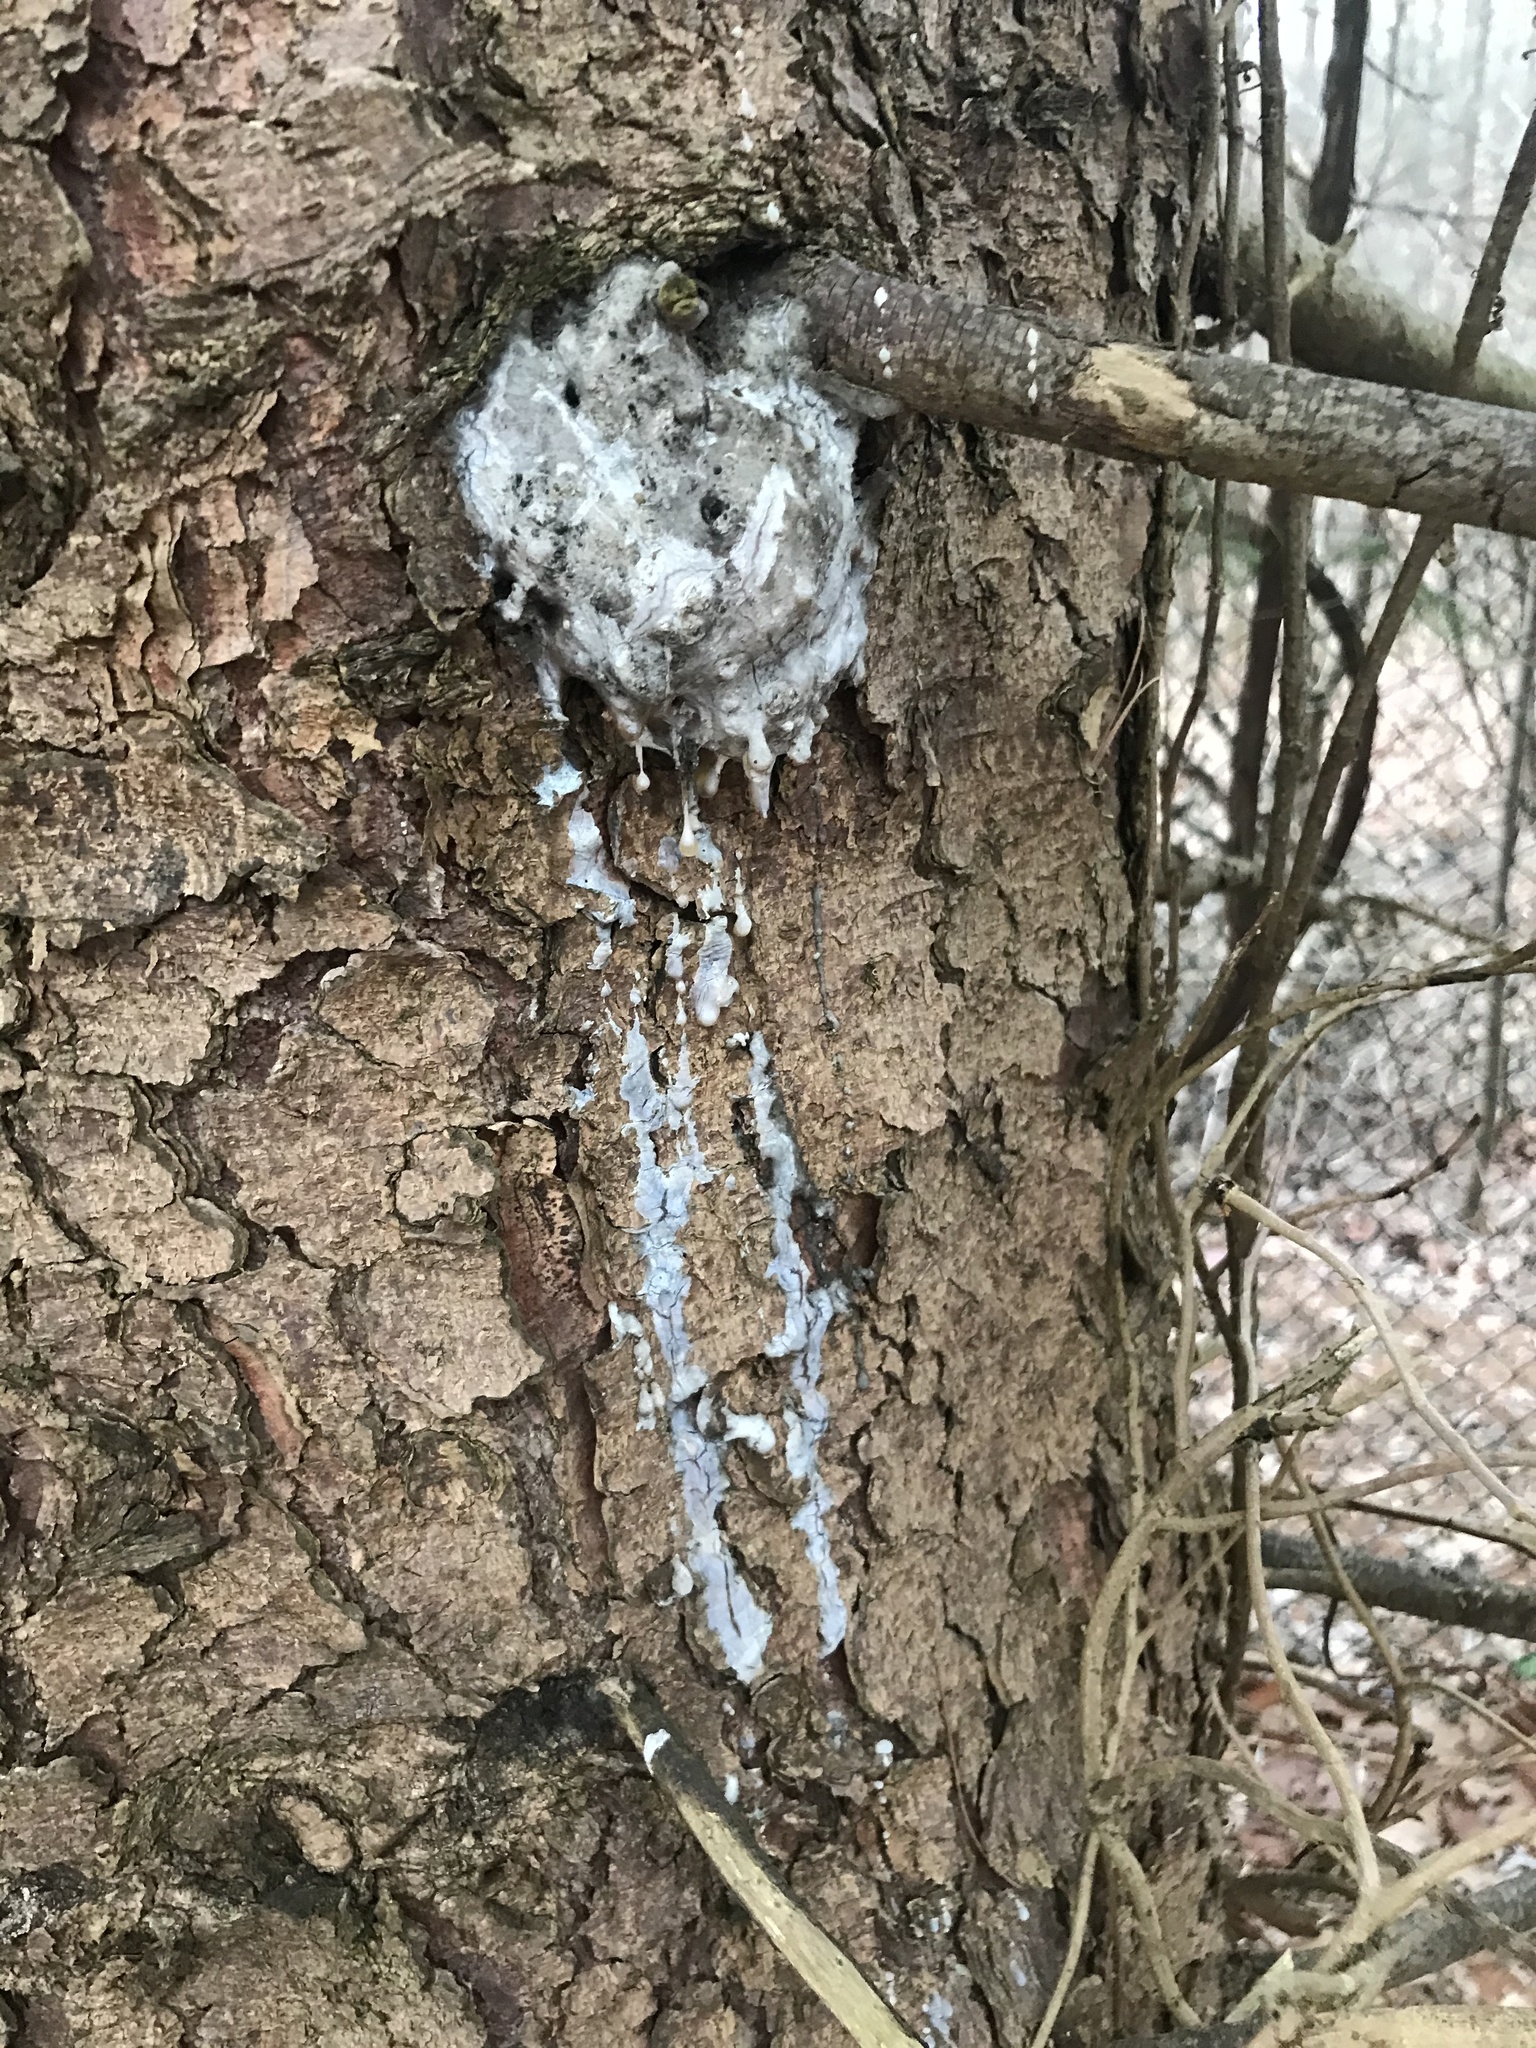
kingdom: Fungi
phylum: Ascomycota
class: Sordariomycetes
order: Diaporthales
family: Valsaceae
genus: Cytospora
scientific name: Cytospora kunzei
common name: Cytospora canker
